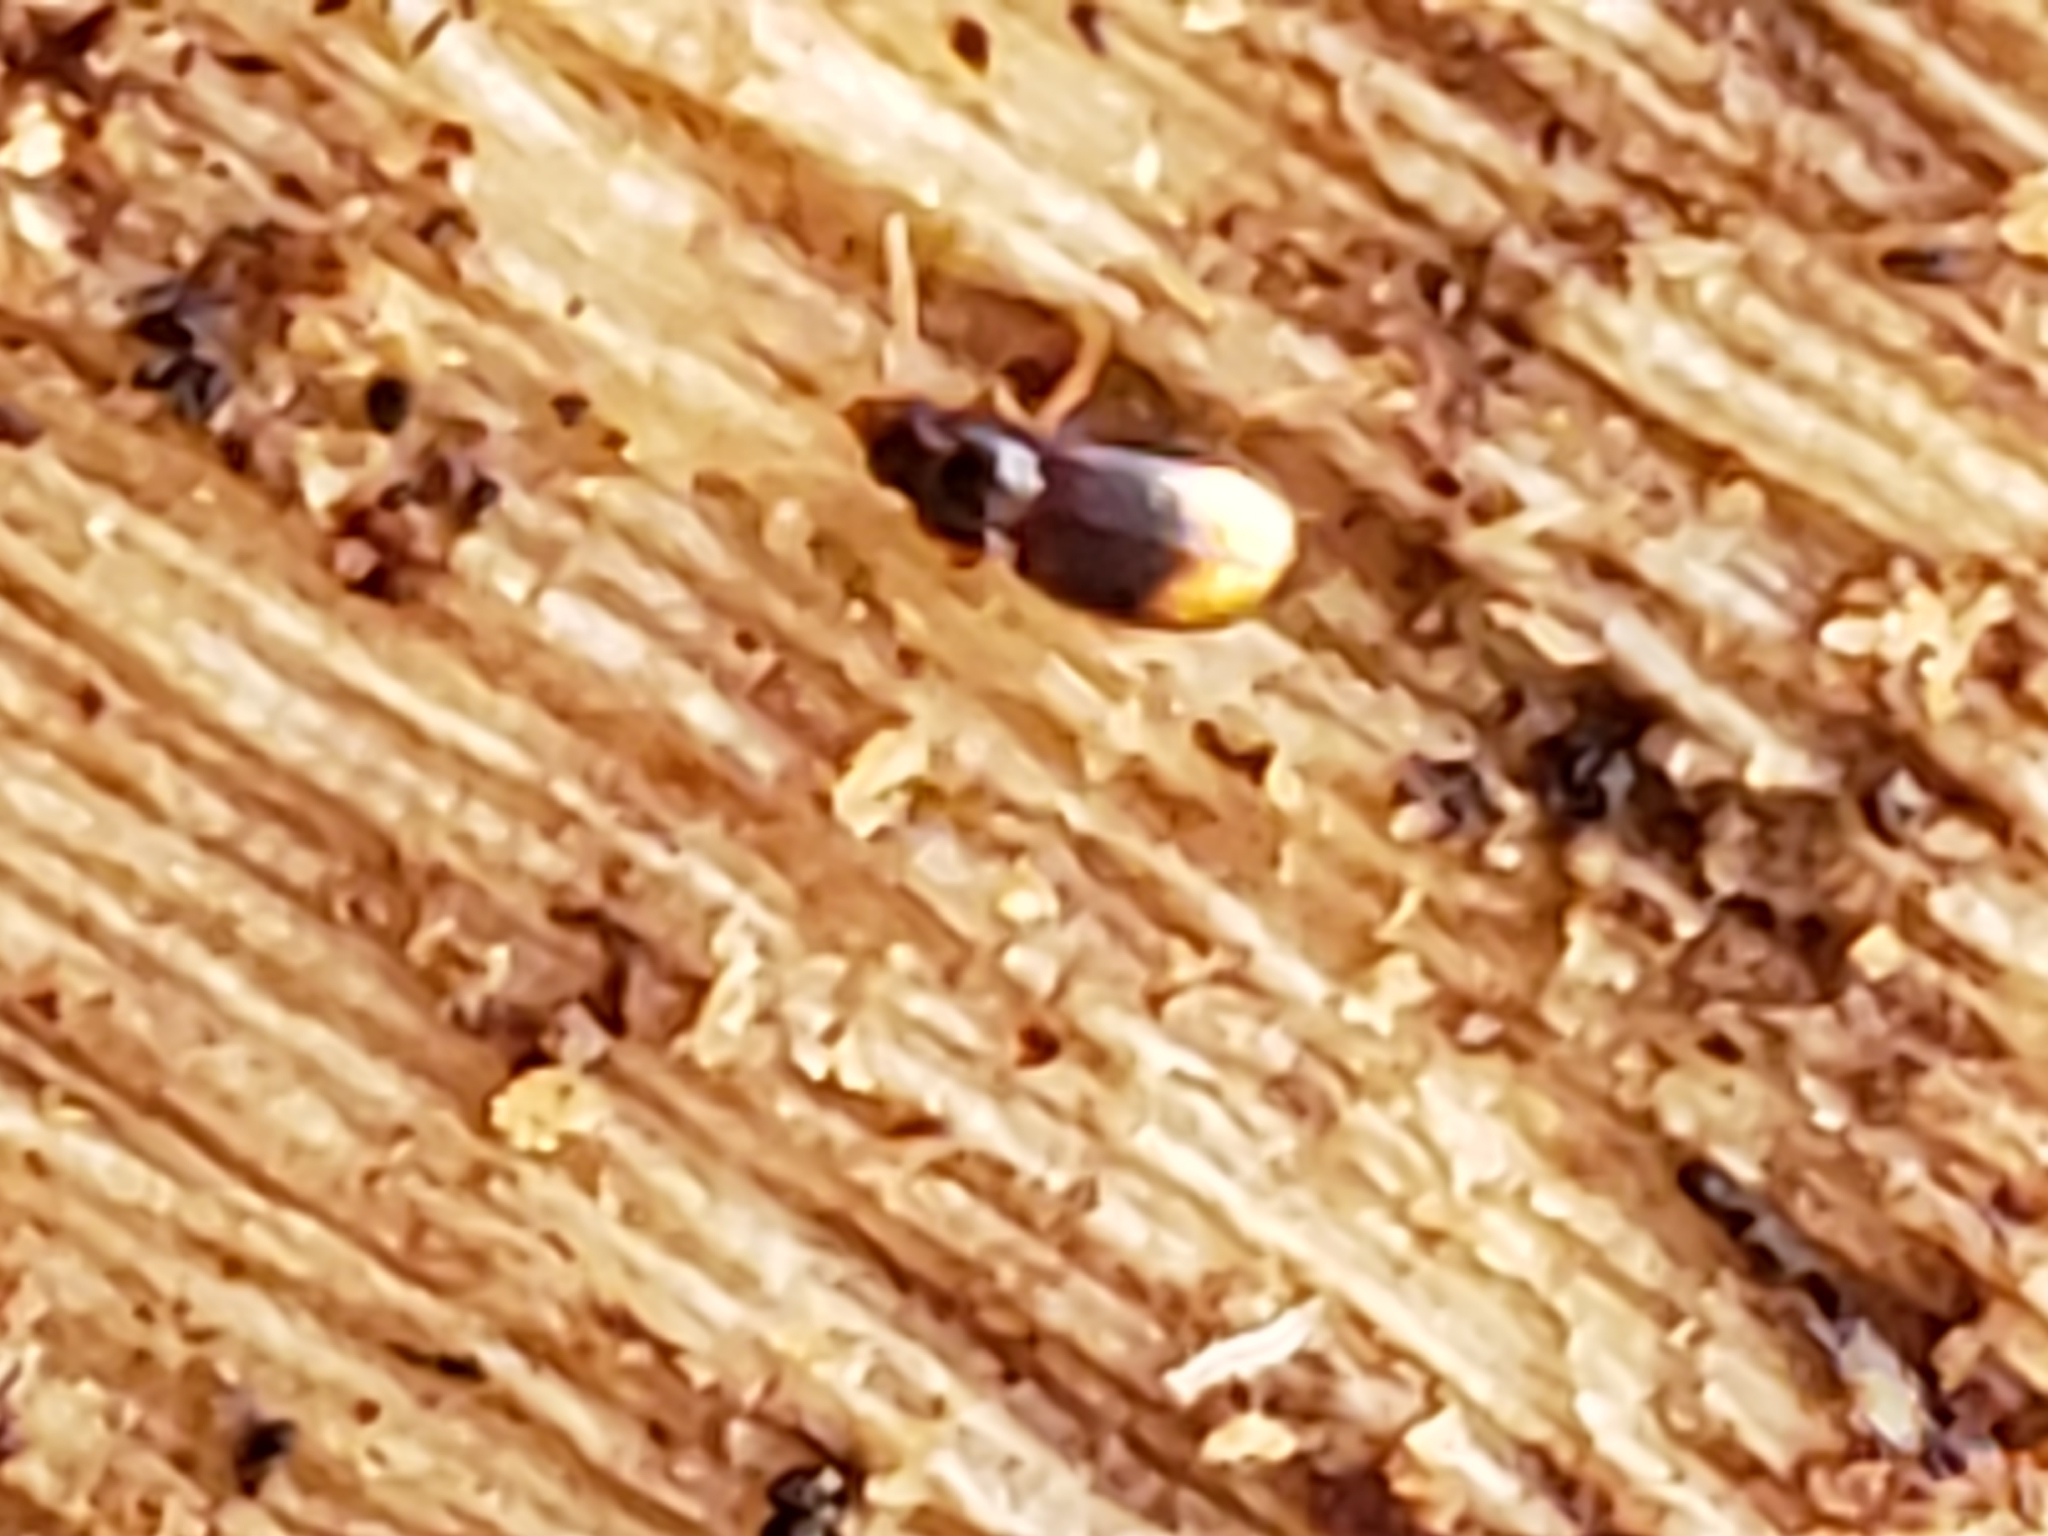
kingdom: Animalia
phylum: Arthropoda
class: Insecta
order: Coleoptera
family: Carabidae
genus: Mioptachys
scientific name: Mioptachys flavicauda
